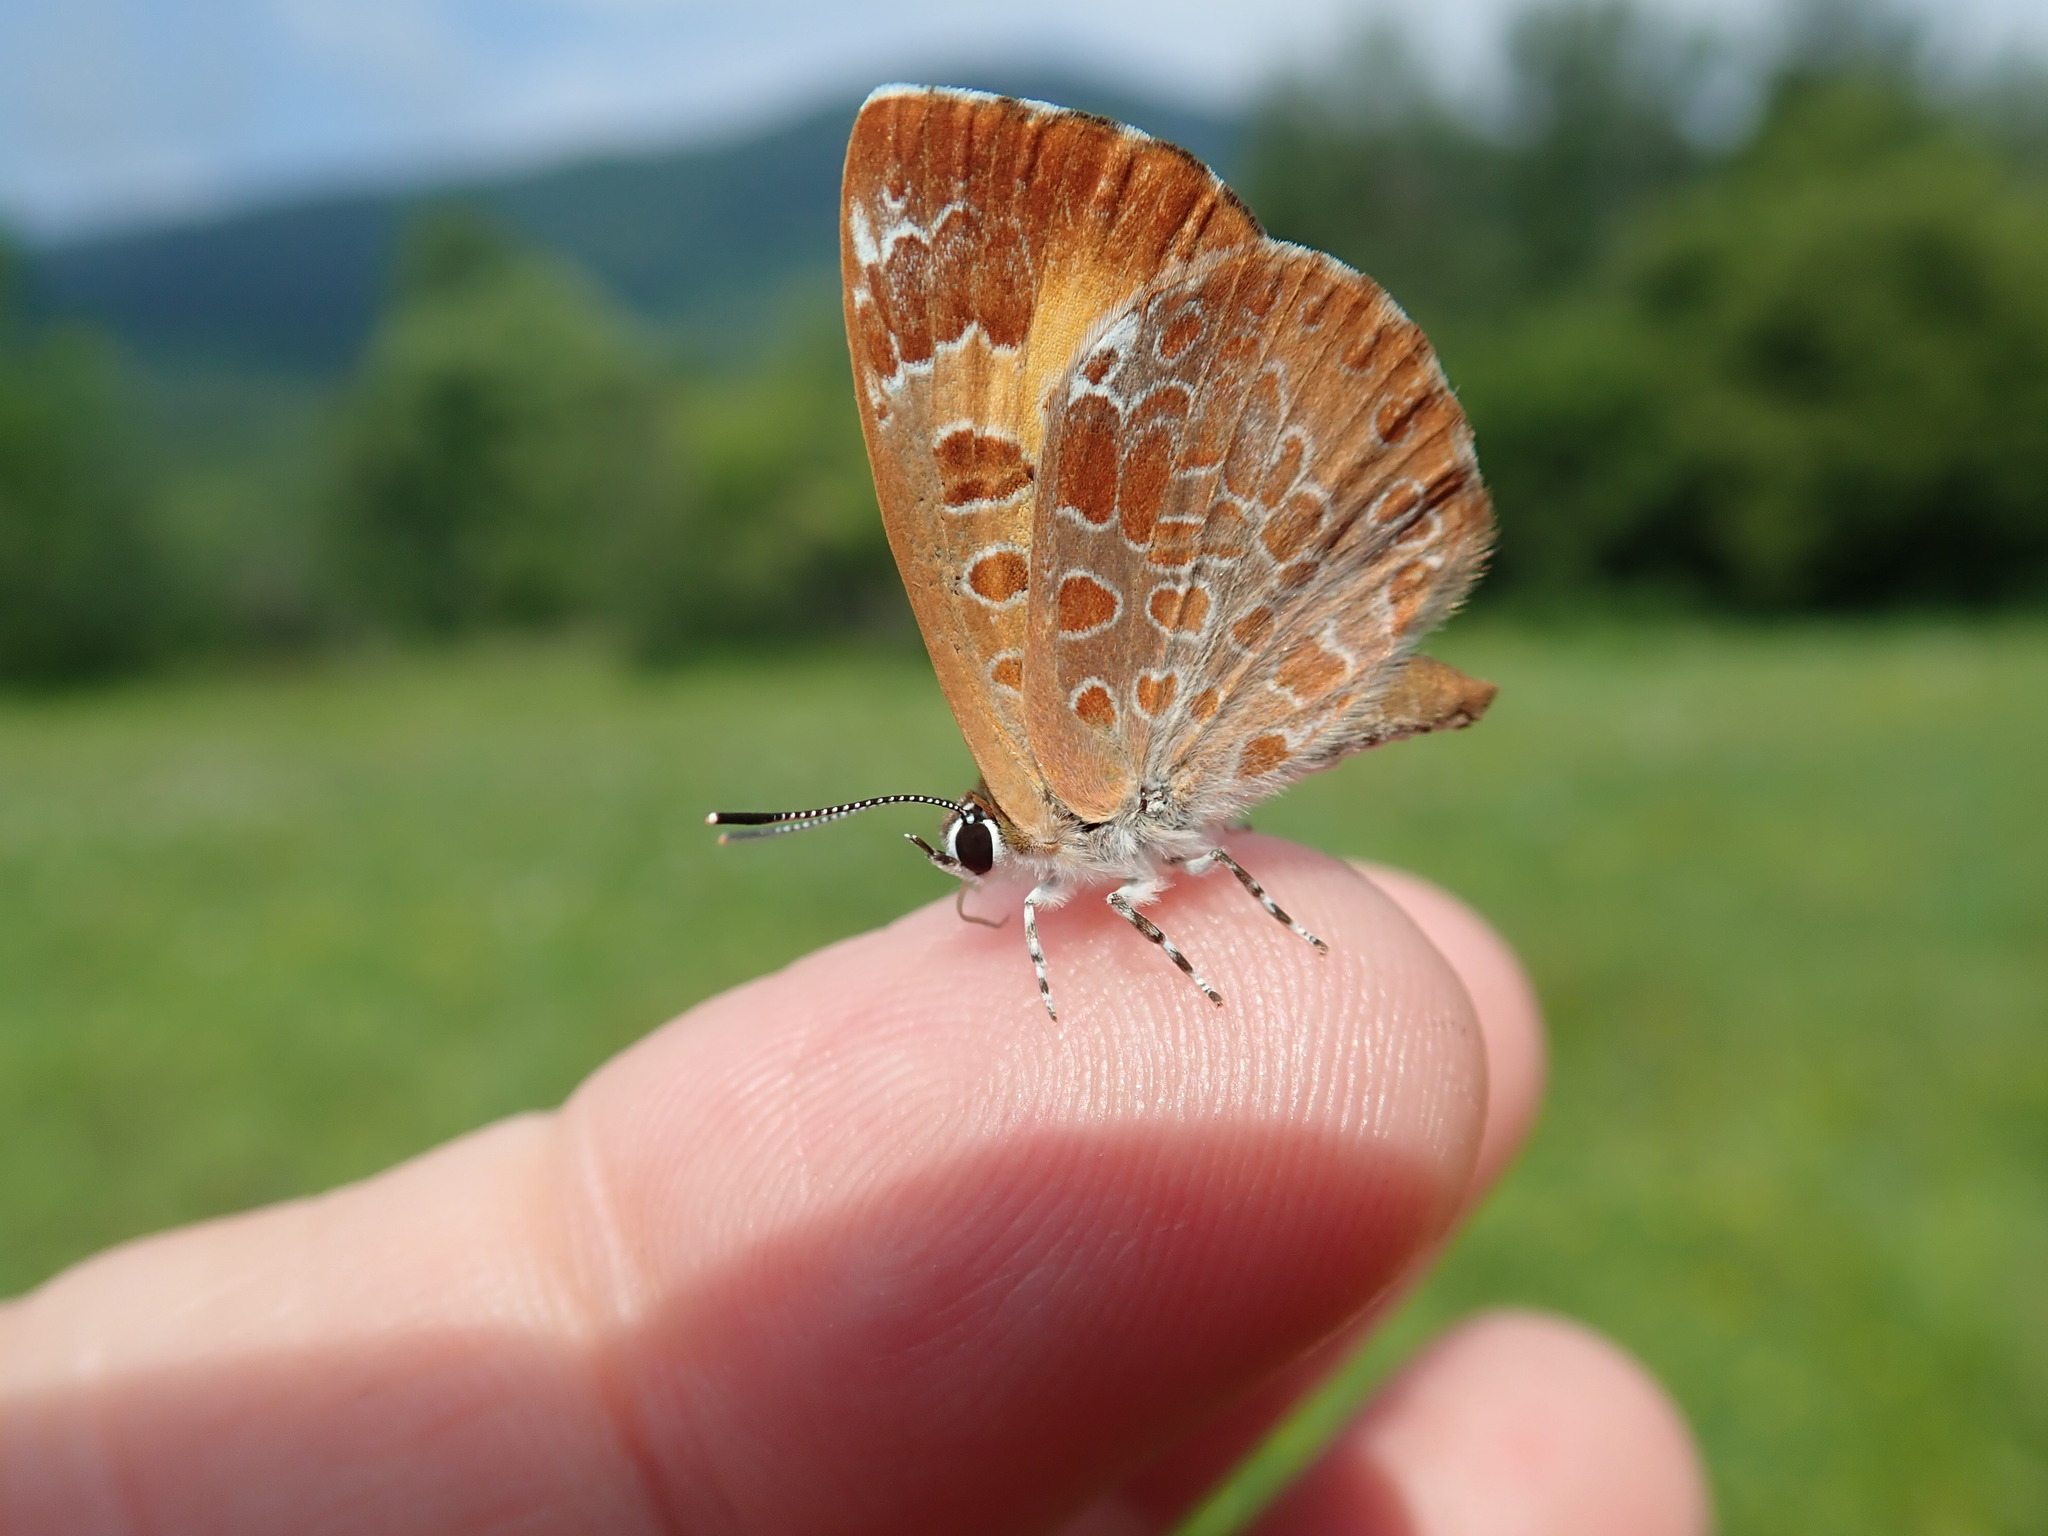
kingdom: Animalia
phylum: Arthropoda
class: Insecta
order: Lepidoptera
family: Lycaenidae
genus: Feniseca
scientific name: Feniseca tarquinius
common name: Harvester
